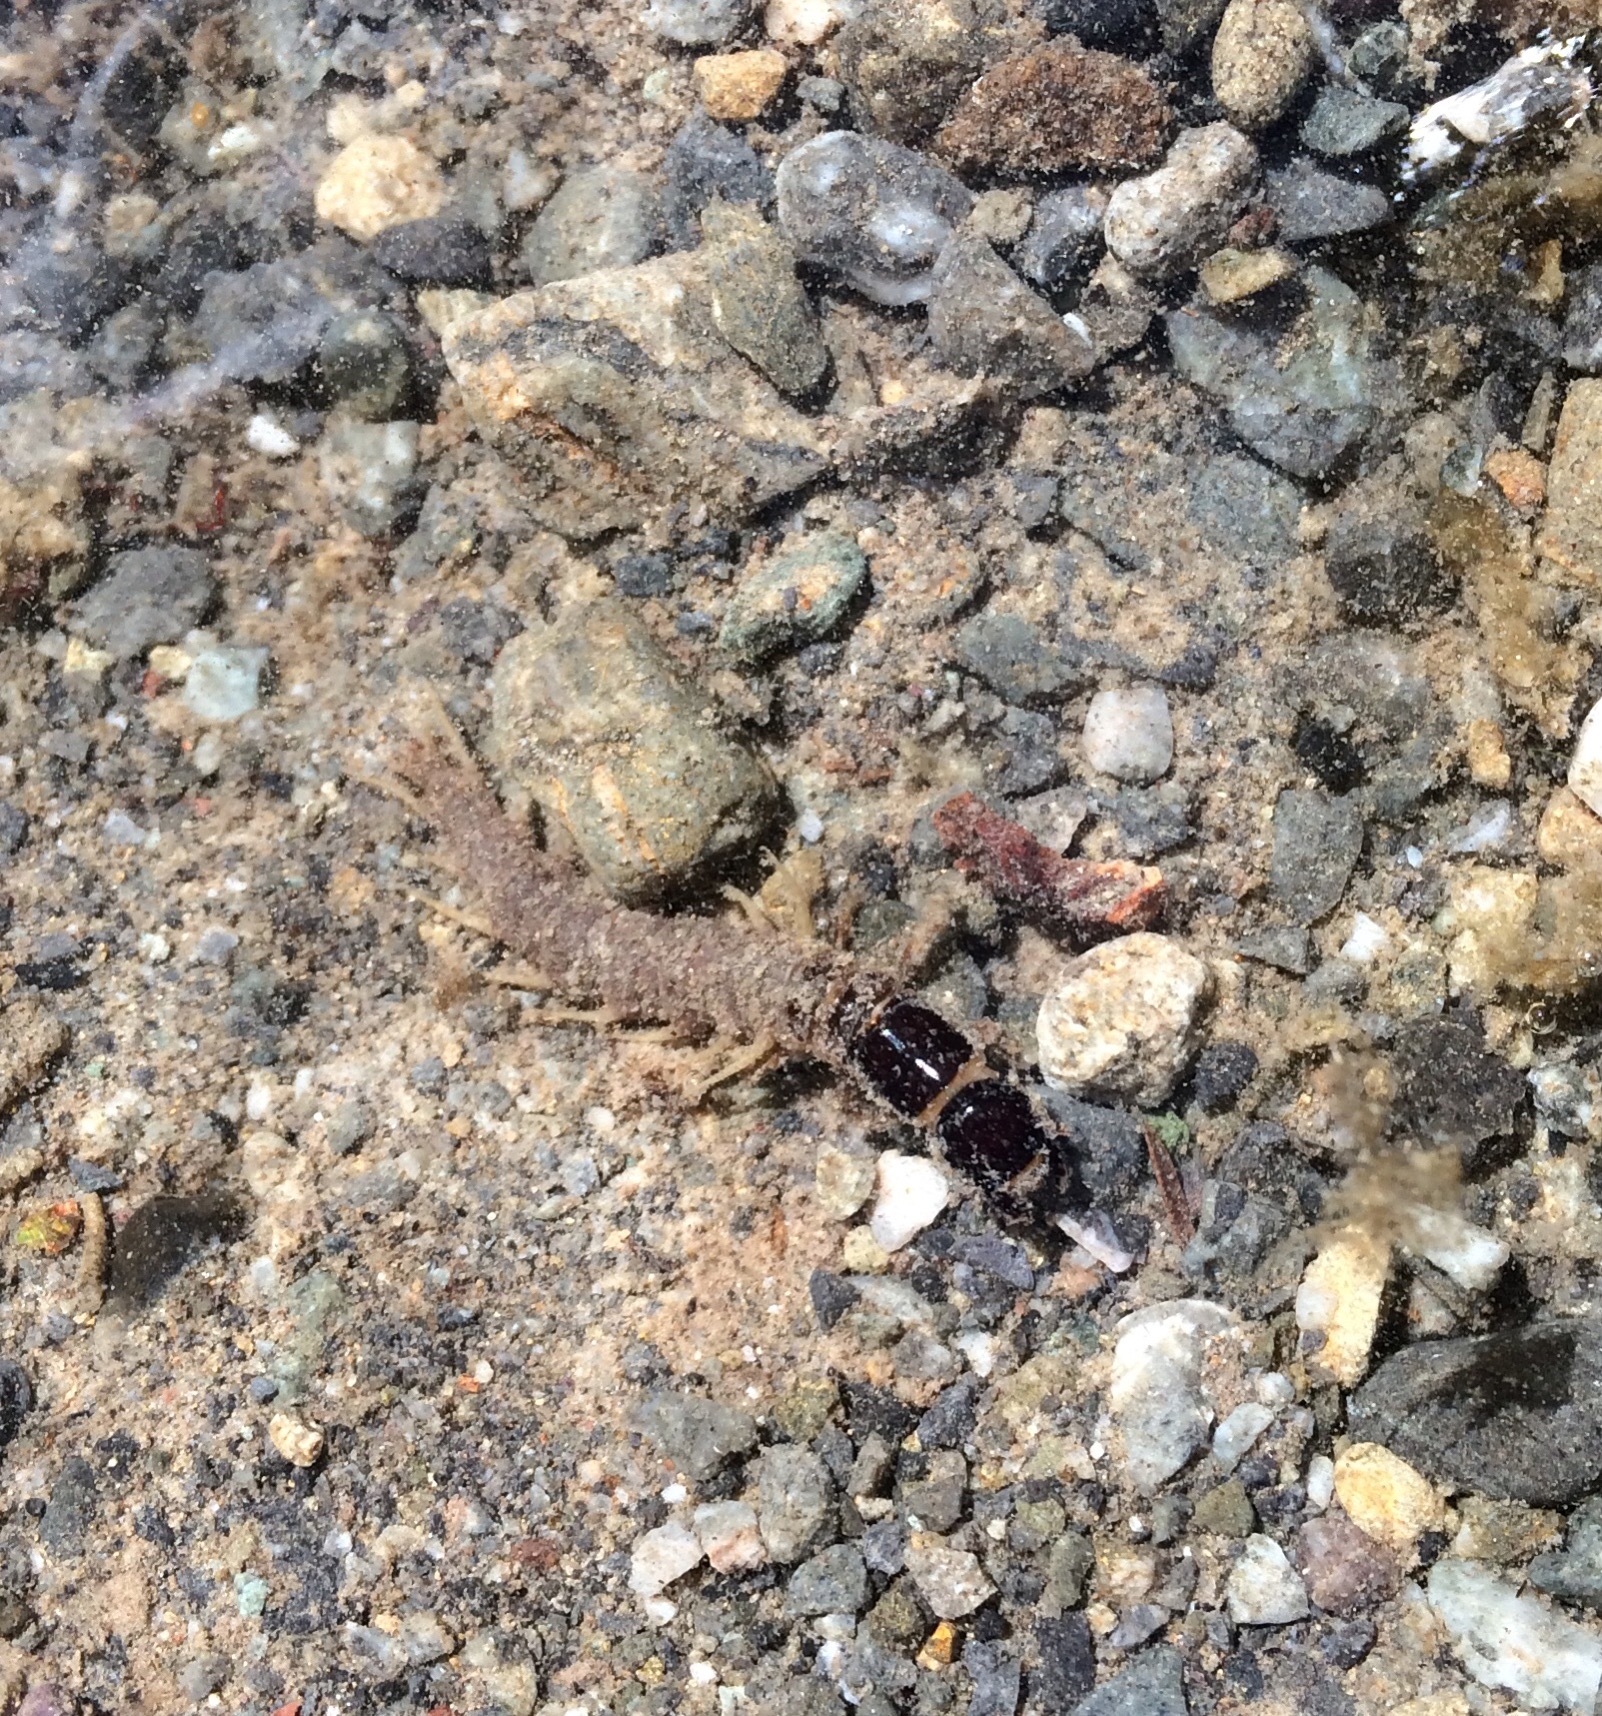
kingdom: Animalia
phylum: Arthropoda
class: Insecta
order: Megaloptera
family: Corydalidae
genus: Archichauliodes
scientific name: Archichauliodes diversus
